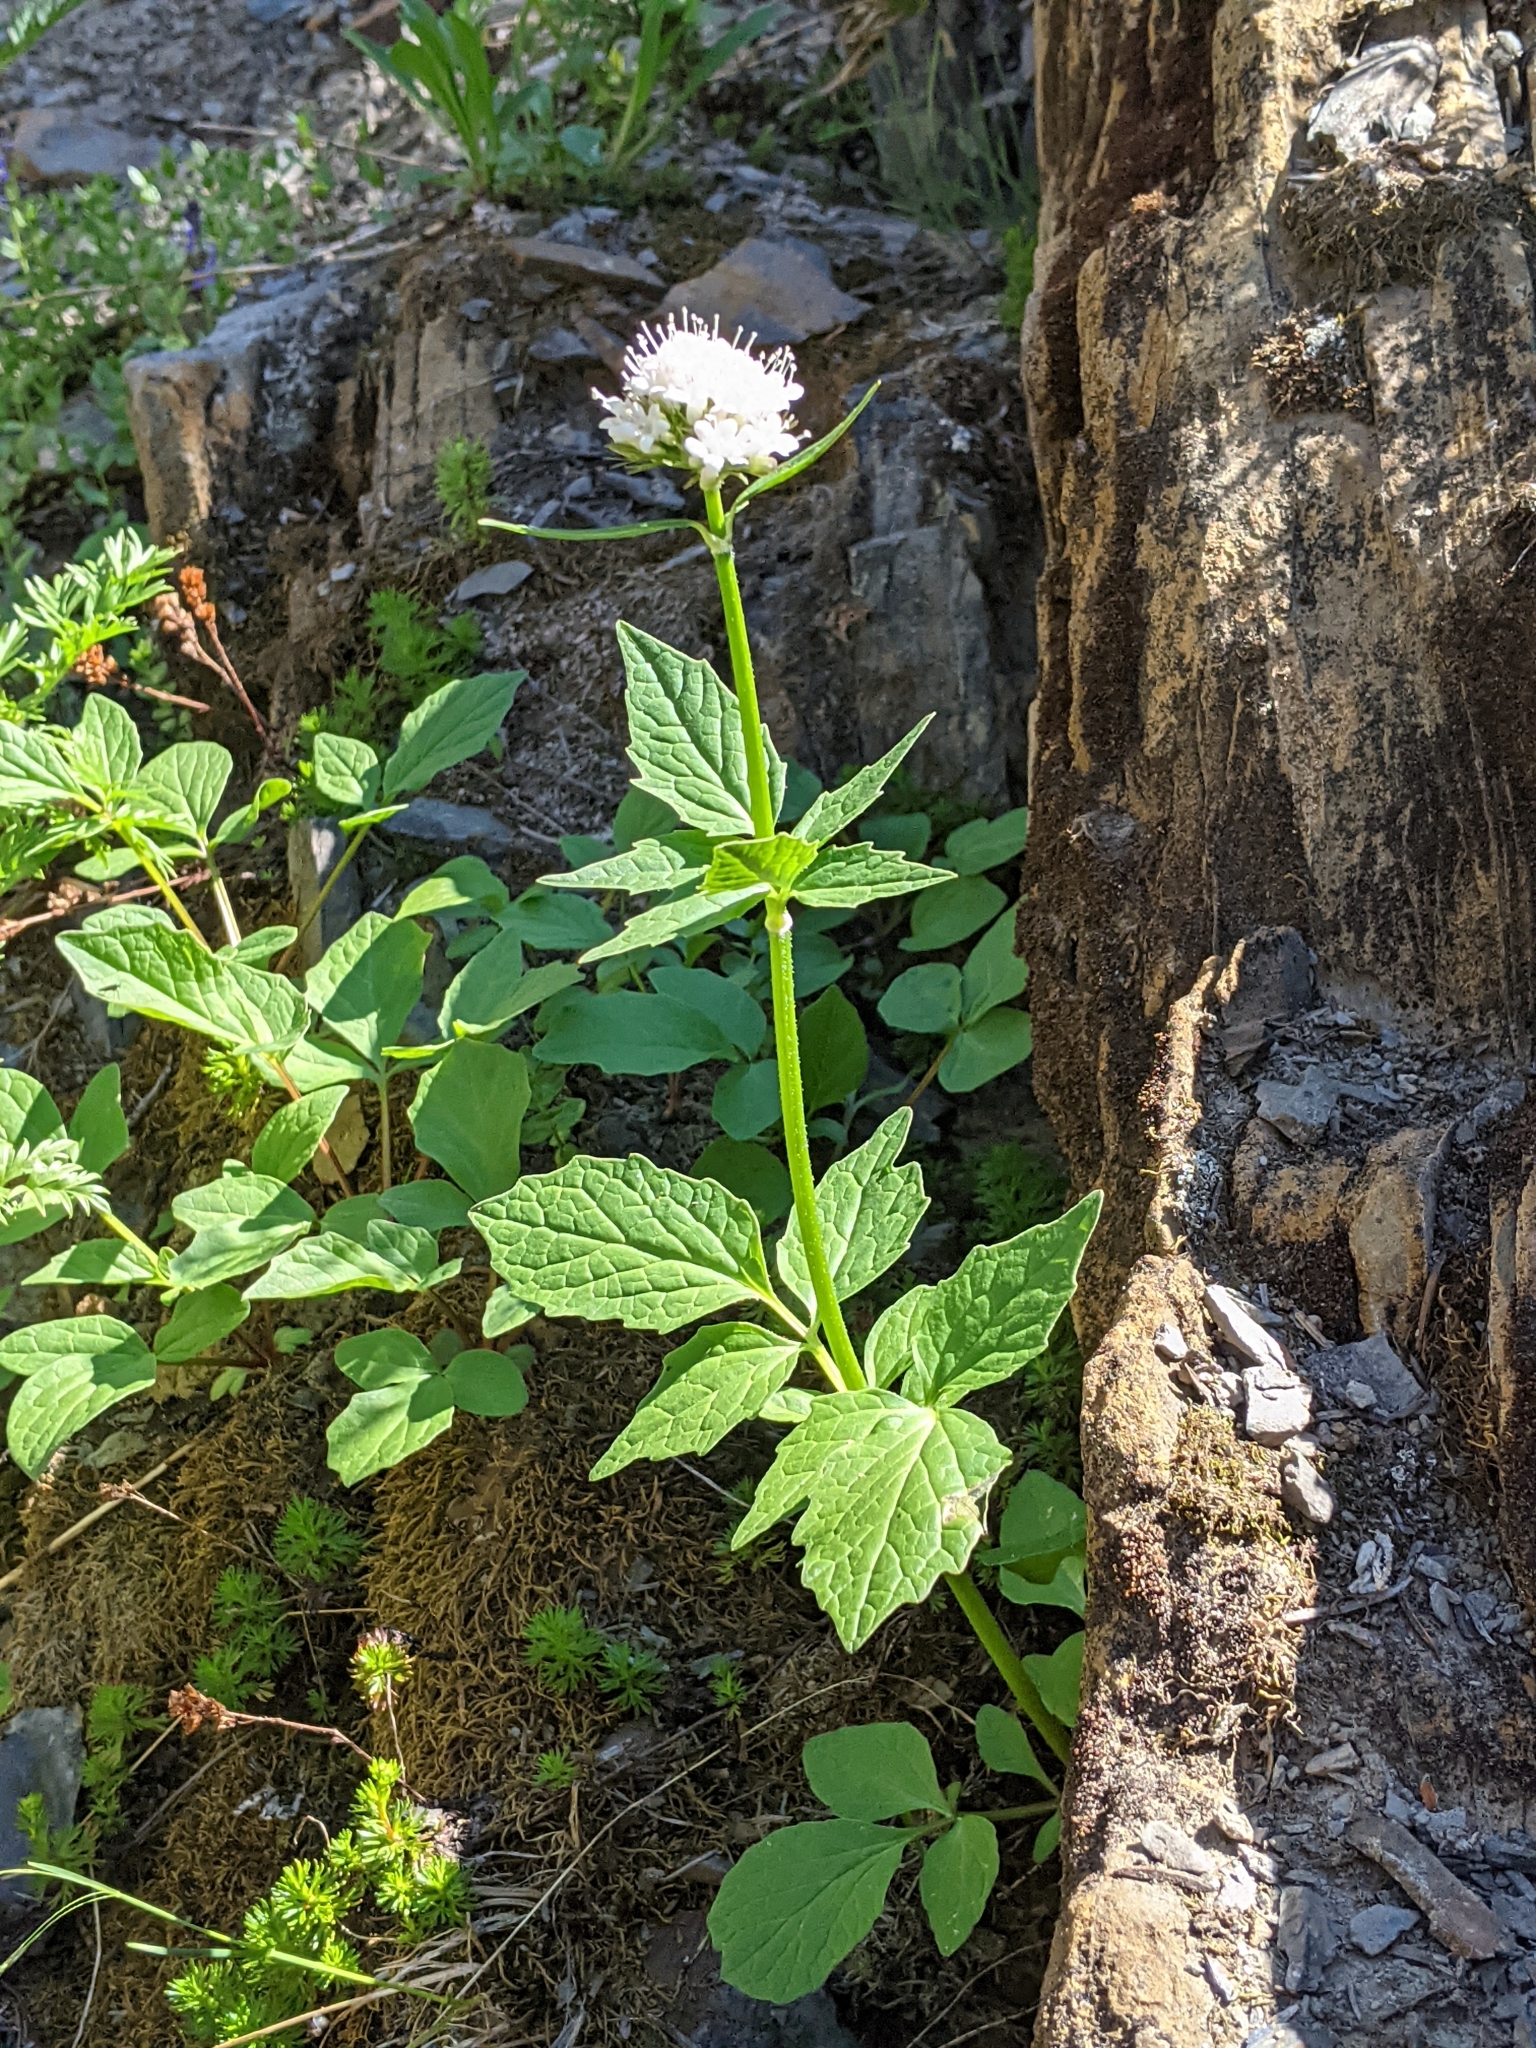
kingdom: Plantae
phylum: Tracheophyta
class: Magnoliopsida
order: Dipsacales
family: Caprifoliaceae
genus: Valeriana
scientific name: Valeriana sitchensis
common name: Pacific valerian
